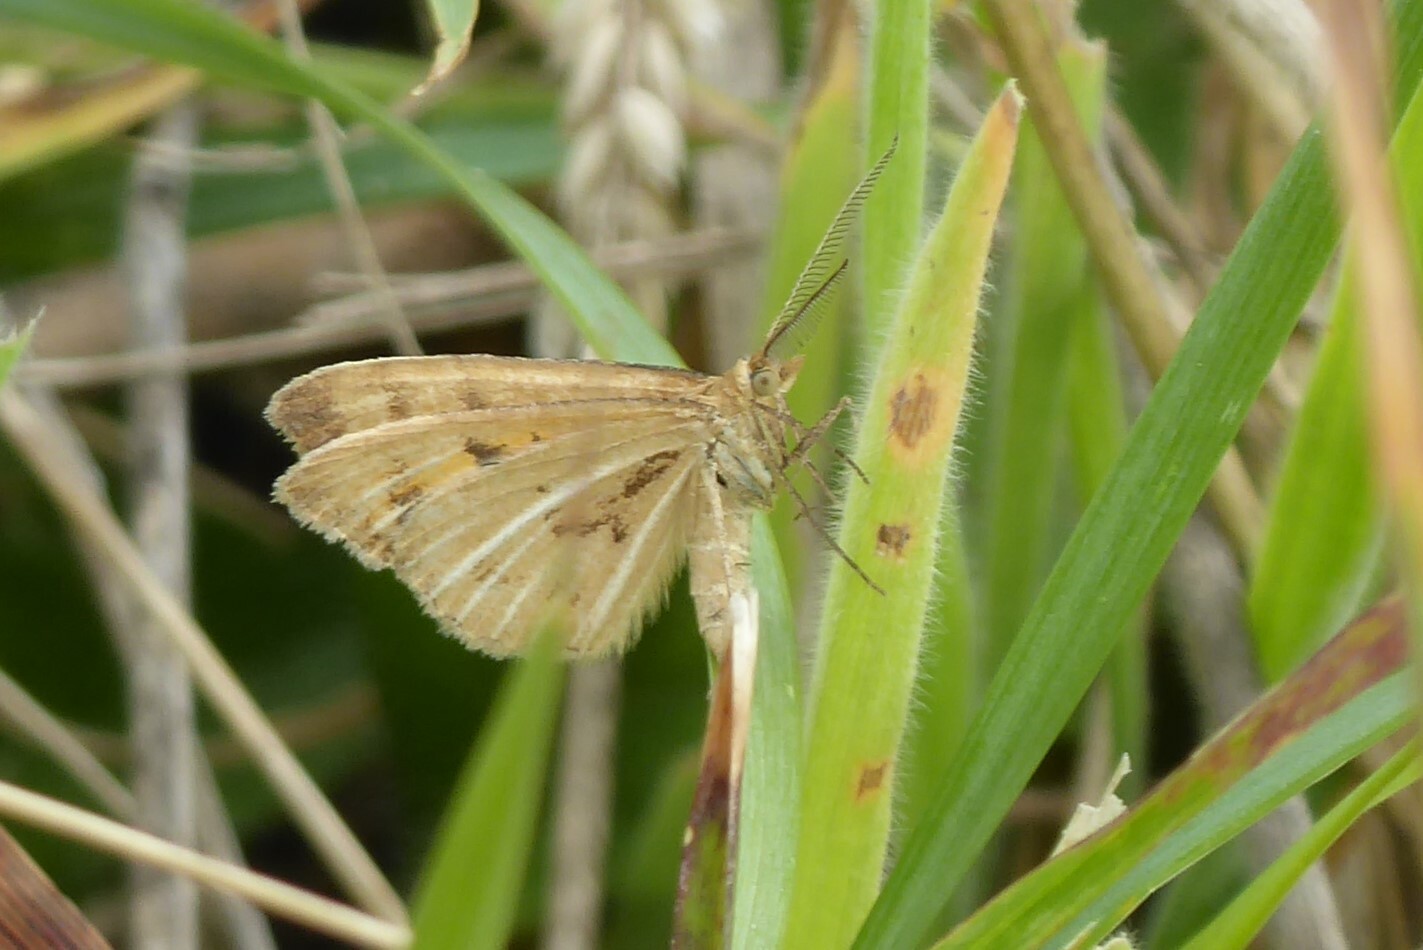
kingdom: Animalia
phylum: Arthropoda
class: Insecta
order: Lepidoptera
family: Geometridae
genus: Asaphodes
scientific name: Asaphodes abrogata
